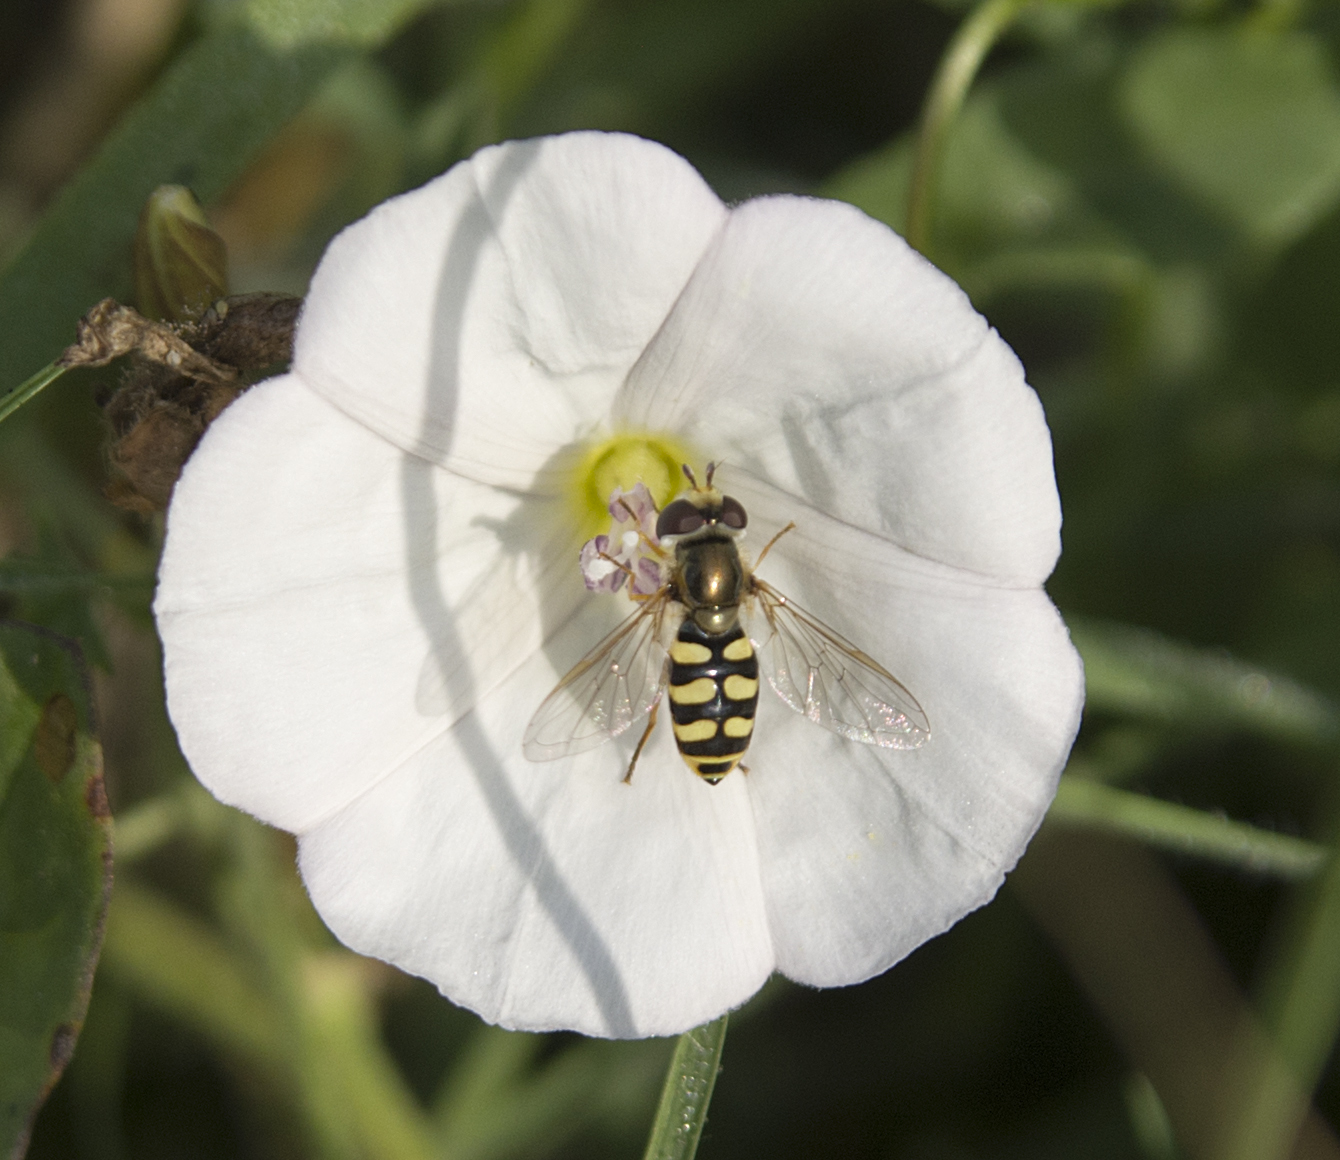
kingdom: Animalia
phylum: Arthropoda
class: Insecta
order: Diptera
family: Syrphidae
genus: Eupeodes
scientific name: Eupeodes corollae
